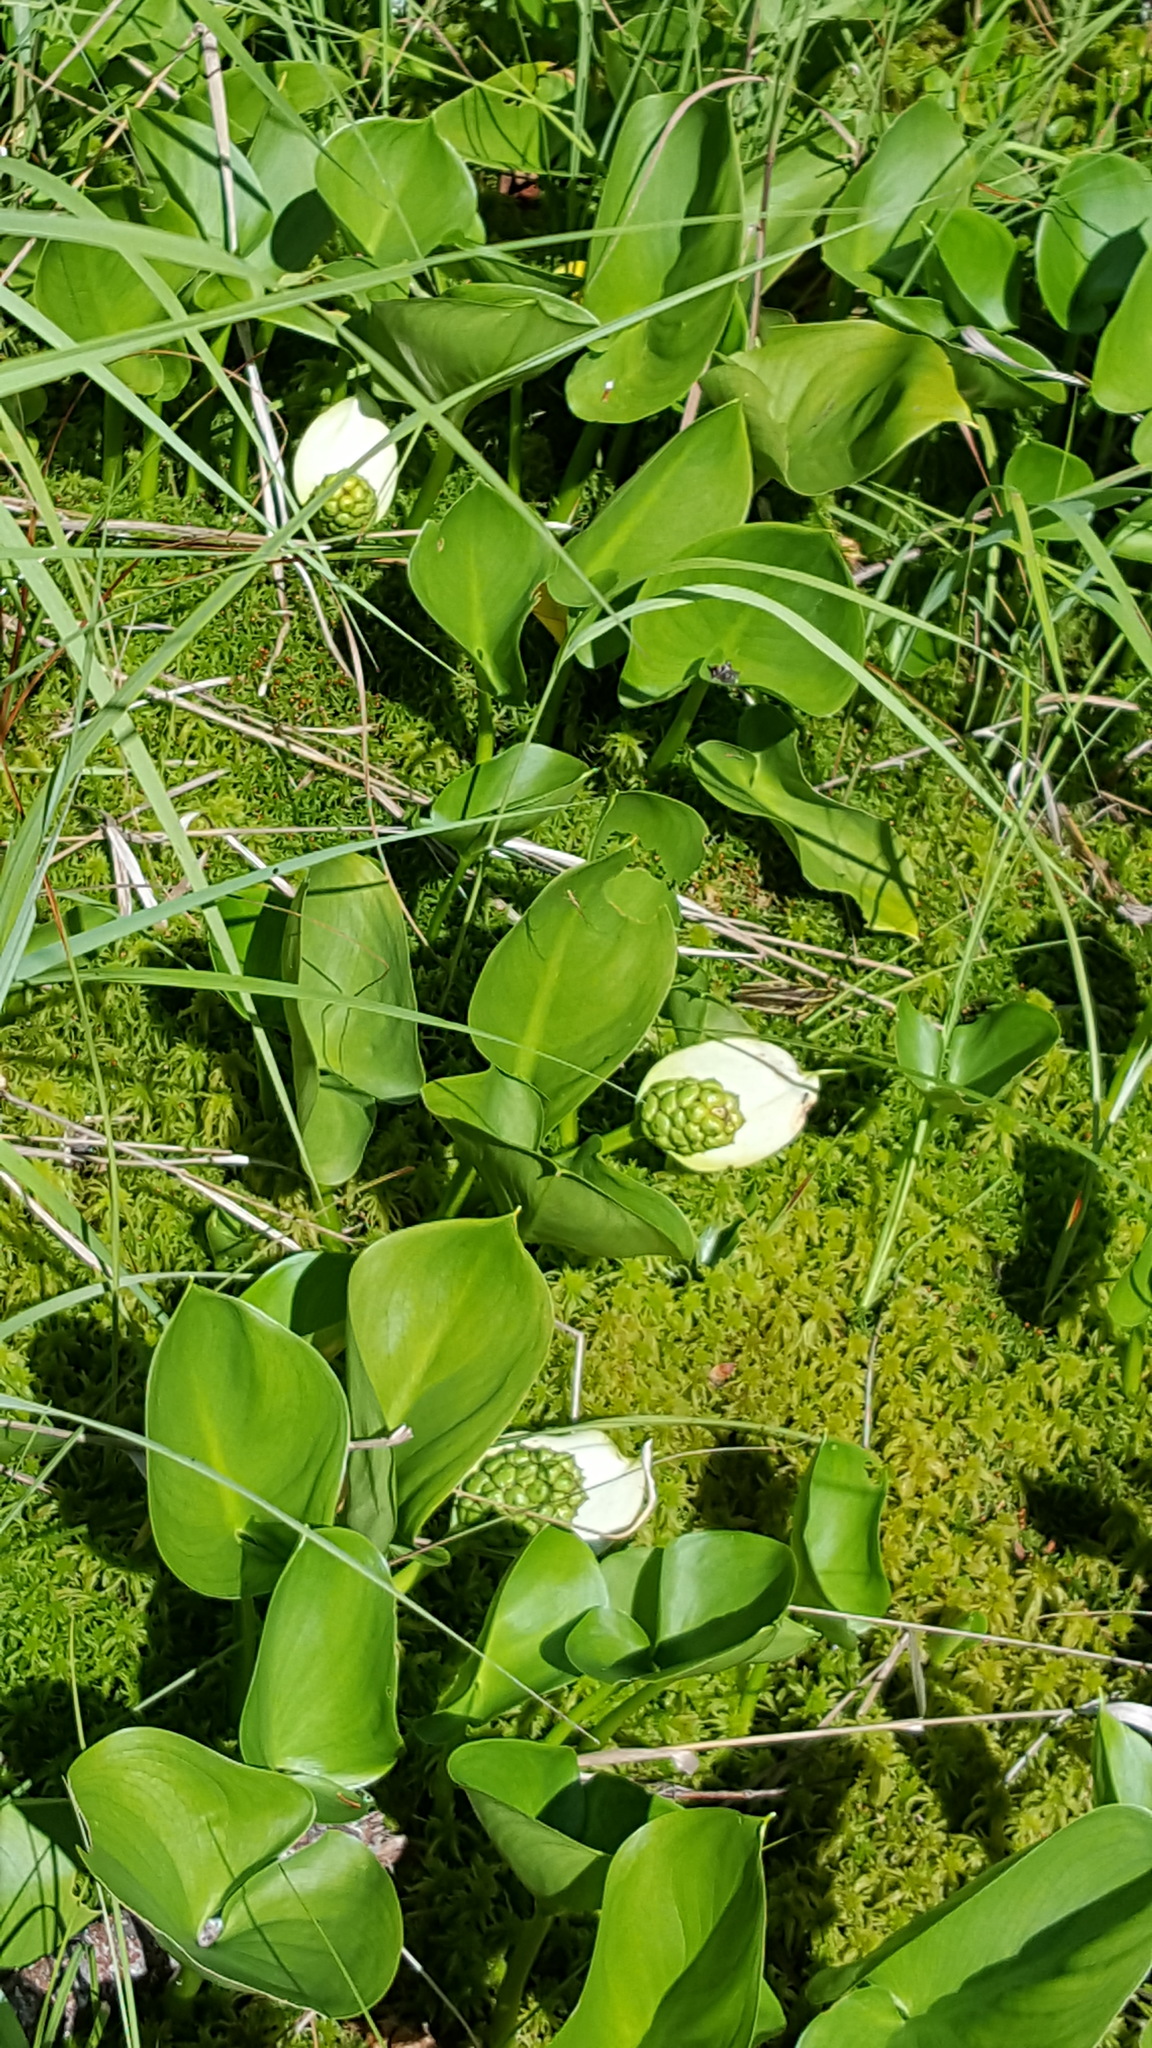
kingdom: Plantae
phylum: Tracheophyta
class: Liliopsida
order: Alismatales
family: Araceae
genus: Calla
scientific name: Calla palustris
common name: Bog arum
